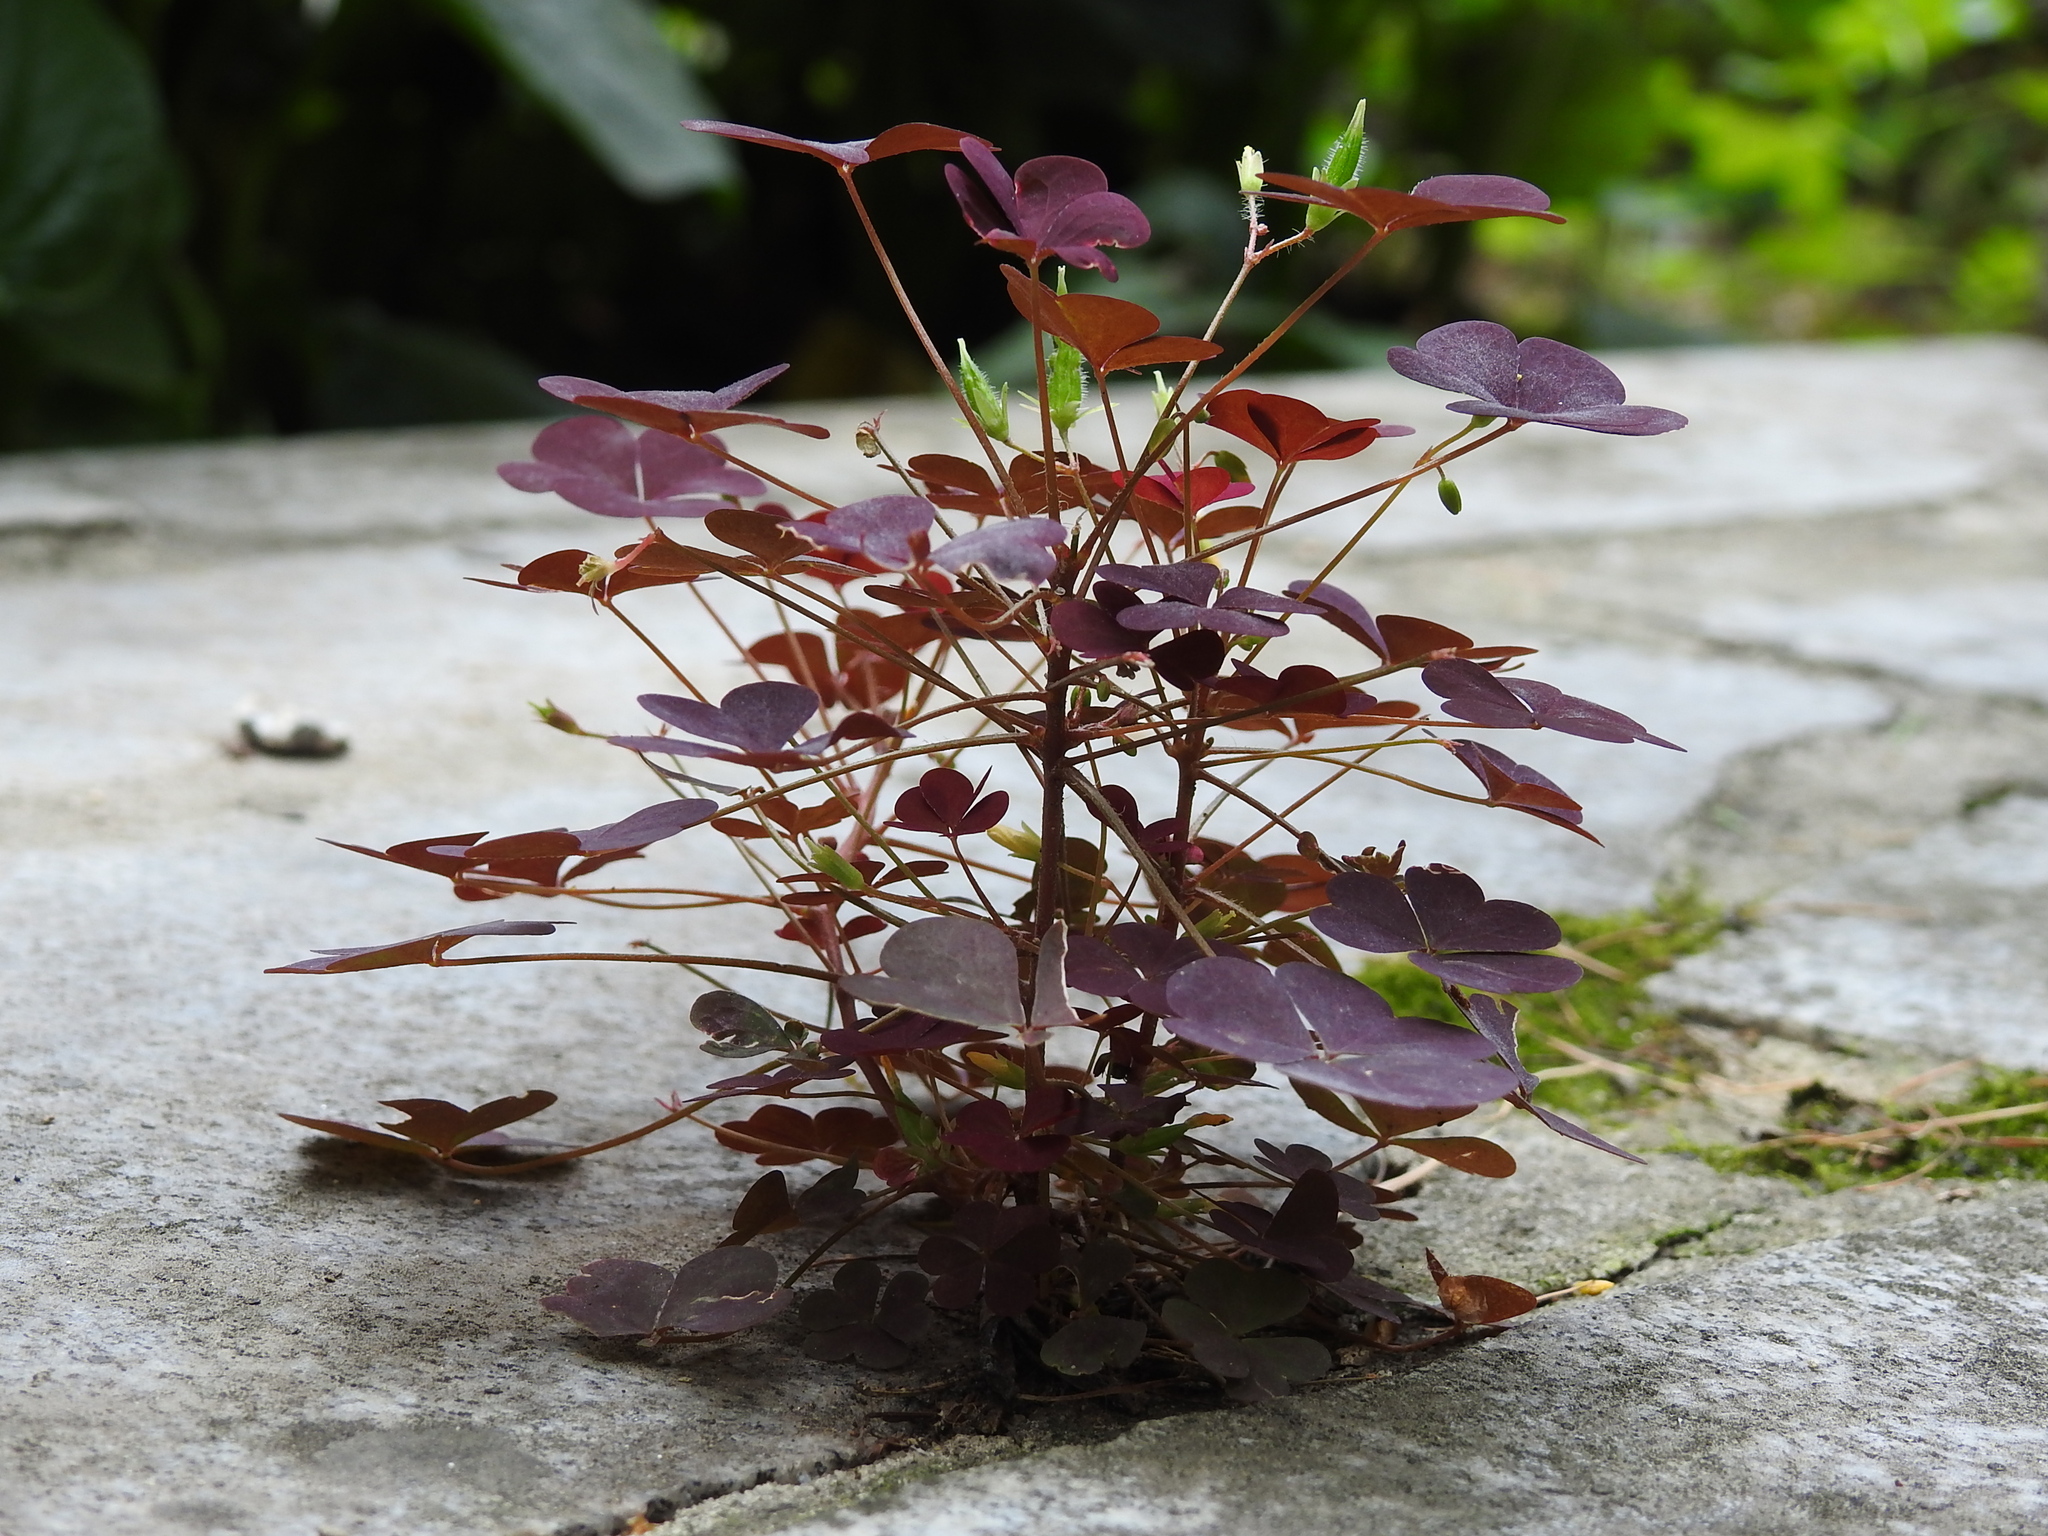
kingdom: Plantae
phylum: Tracheophyta
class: Magnoliopsida
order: Oxalidales
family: Oxalidaceae
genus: Oxalis
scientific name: Oxalis stricta
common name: Upright yellow-sorrel
